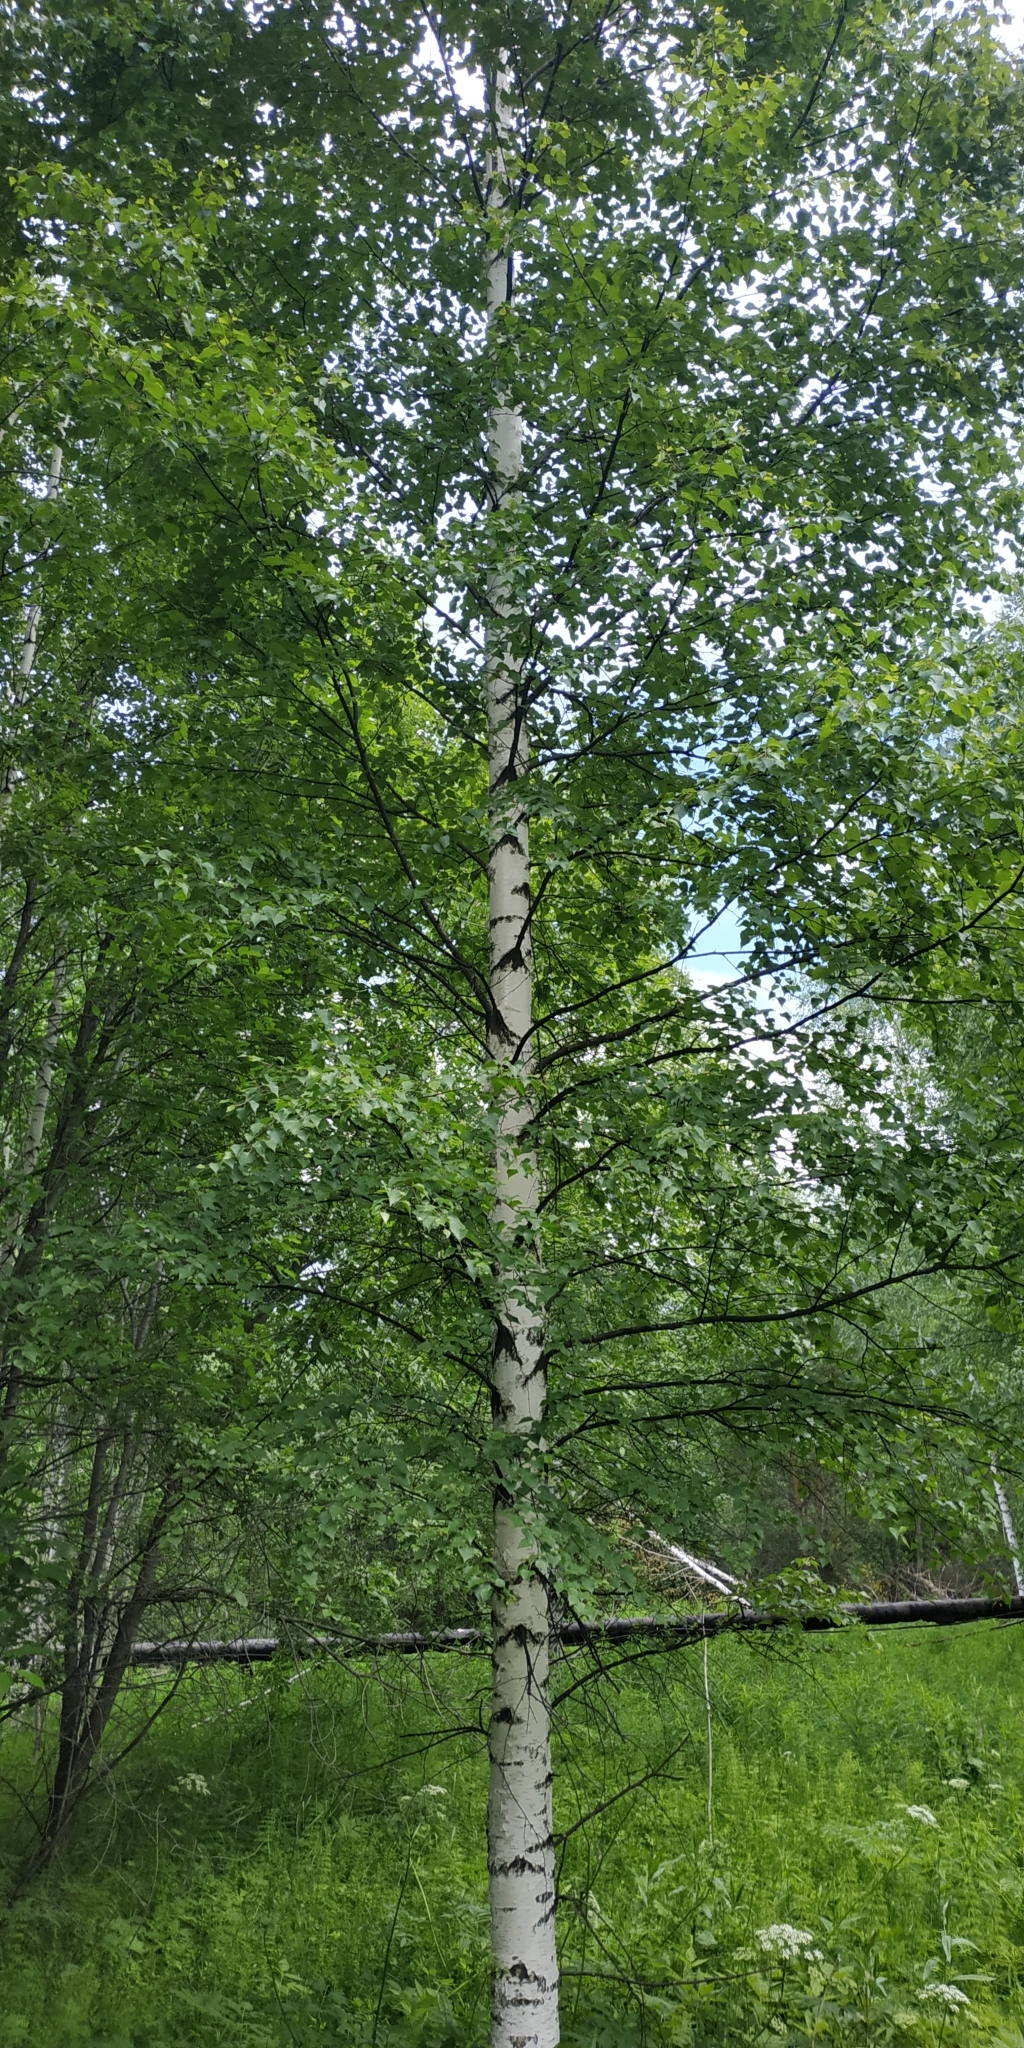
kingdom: Plantae
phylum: Tracheophyta
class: Magnoliopsida
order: Fagales
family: Betulaceae
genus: Betula
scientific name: Betula pendula
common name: Silver birch
